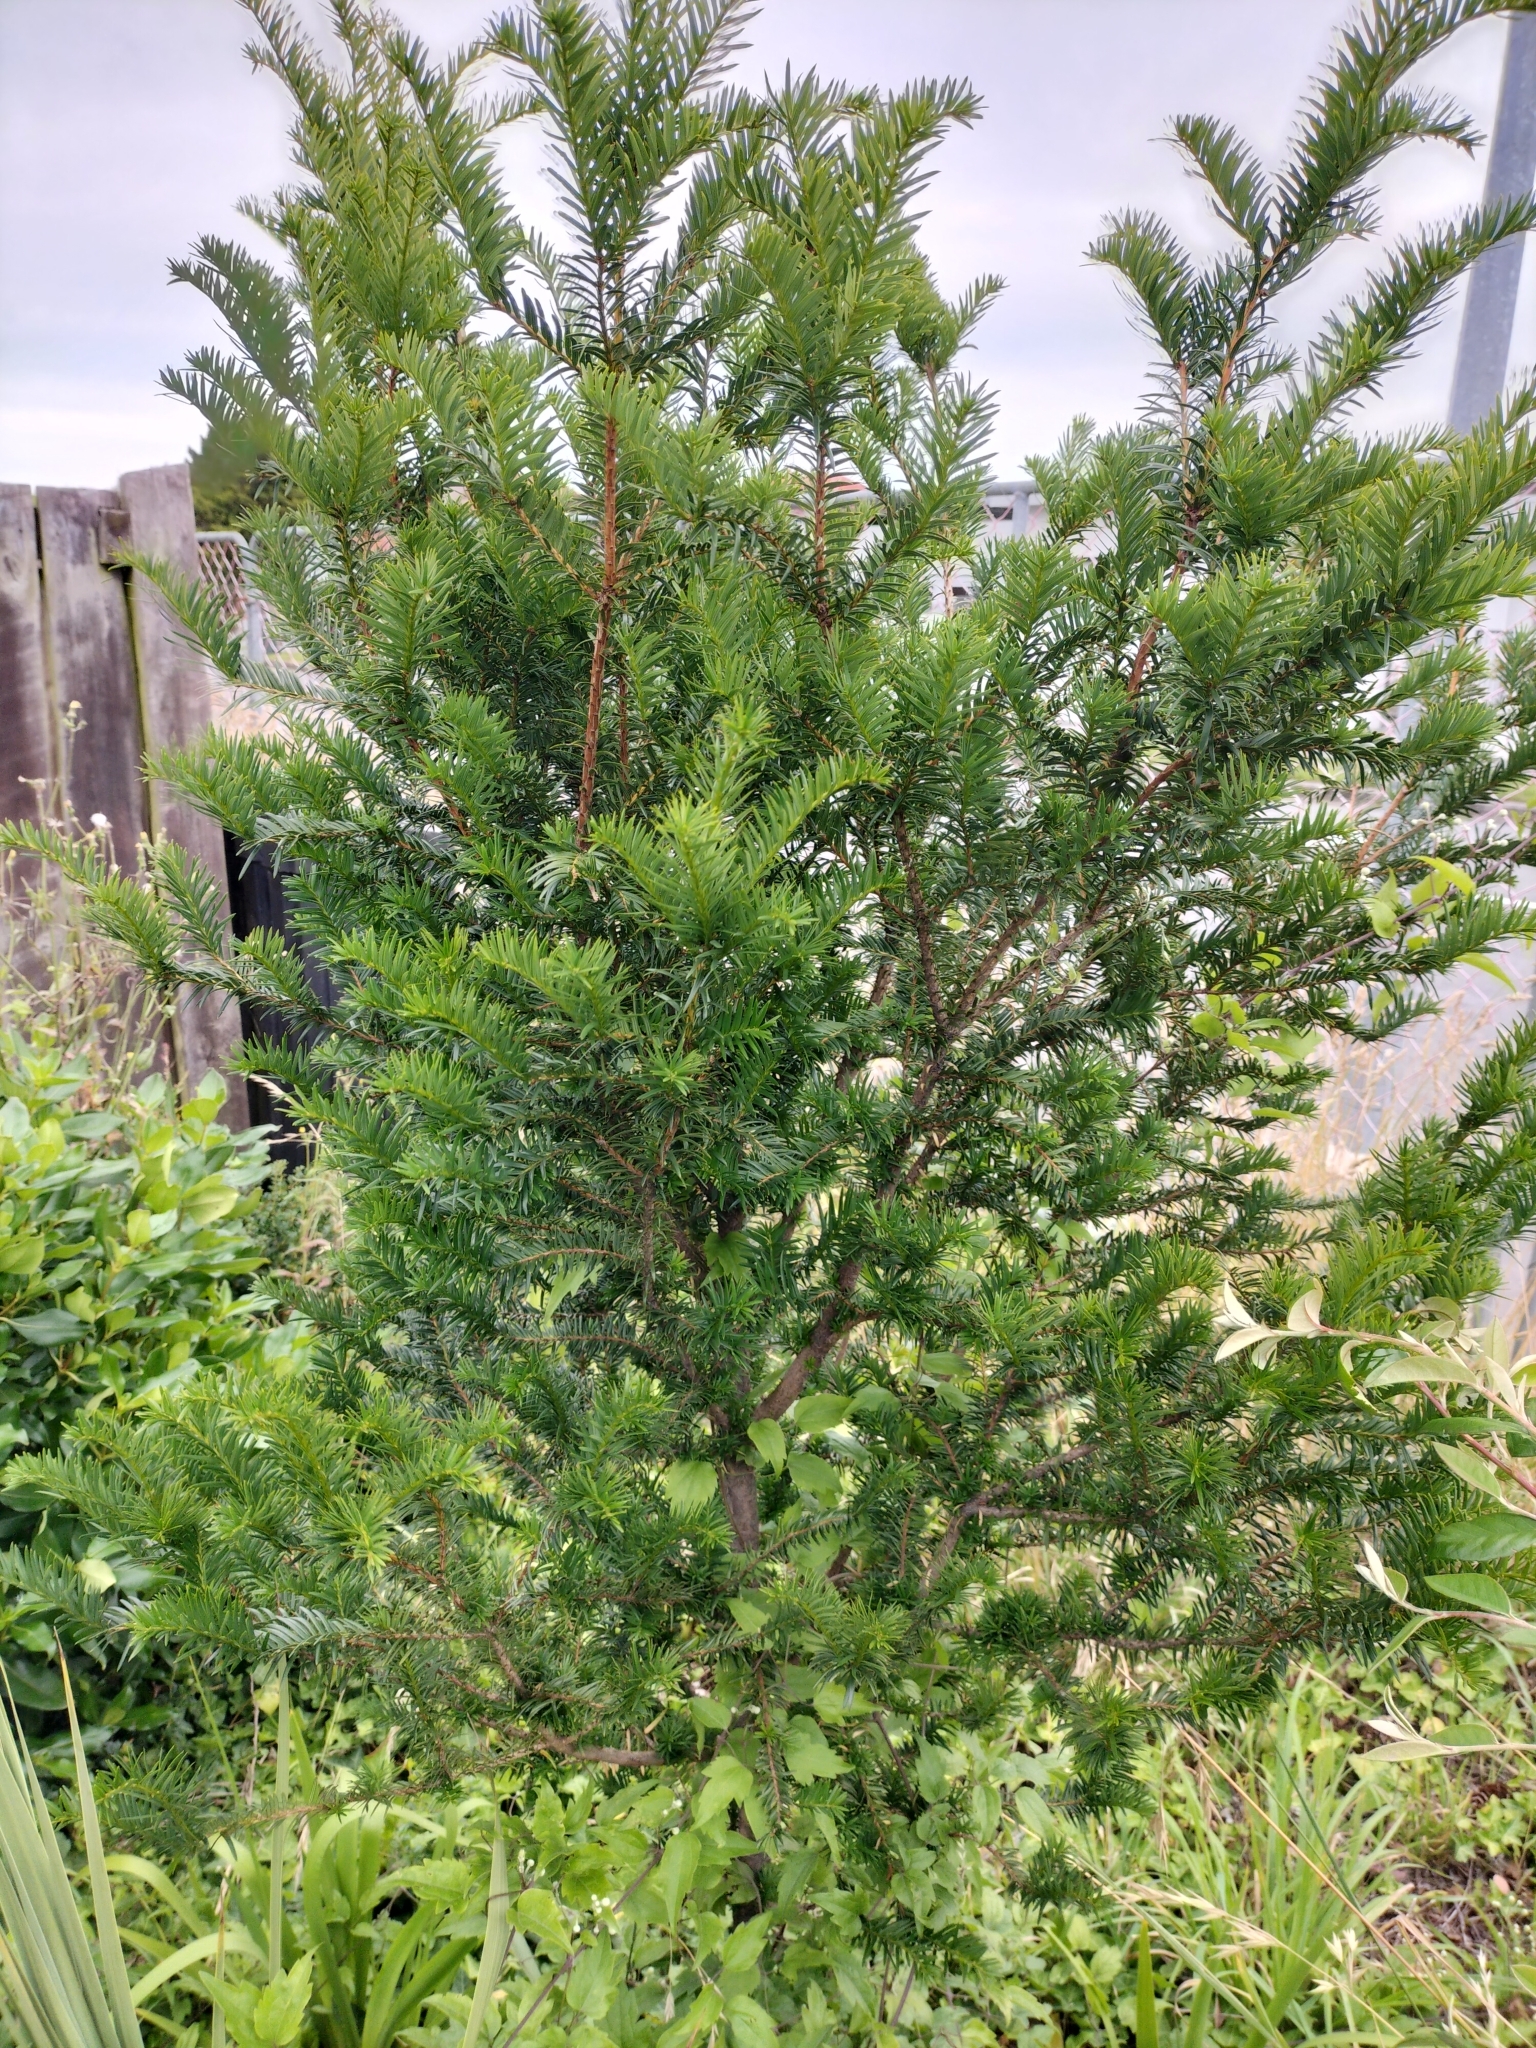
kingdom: Plantae
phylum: Tracheophyta
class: Pinopsida
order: Pinales
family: Taxaceae
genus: Taxus
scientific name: Taxus baccata
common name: Yew
